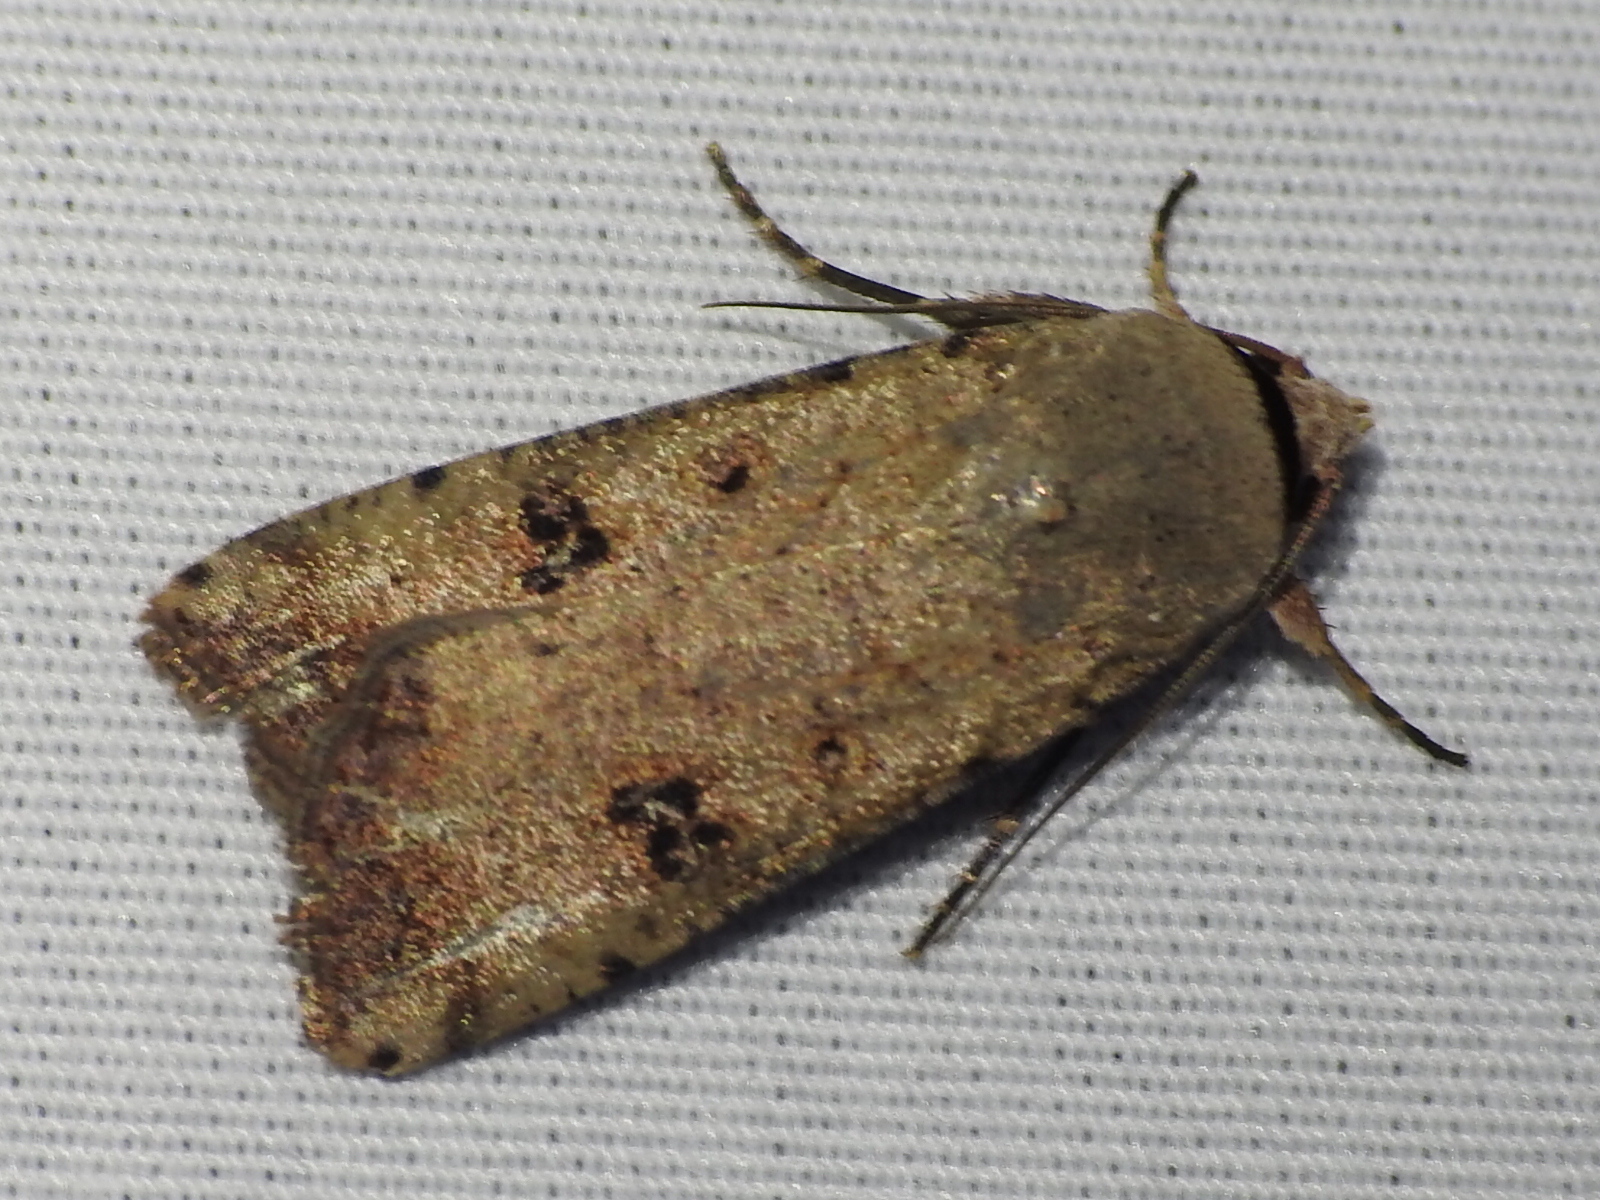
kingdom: Animalia
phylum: Arthropoda
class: Insecta
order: Lepidoptera
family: Noctuidae
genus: Anicla
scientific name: Anicla infecta
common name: Green cutworm
